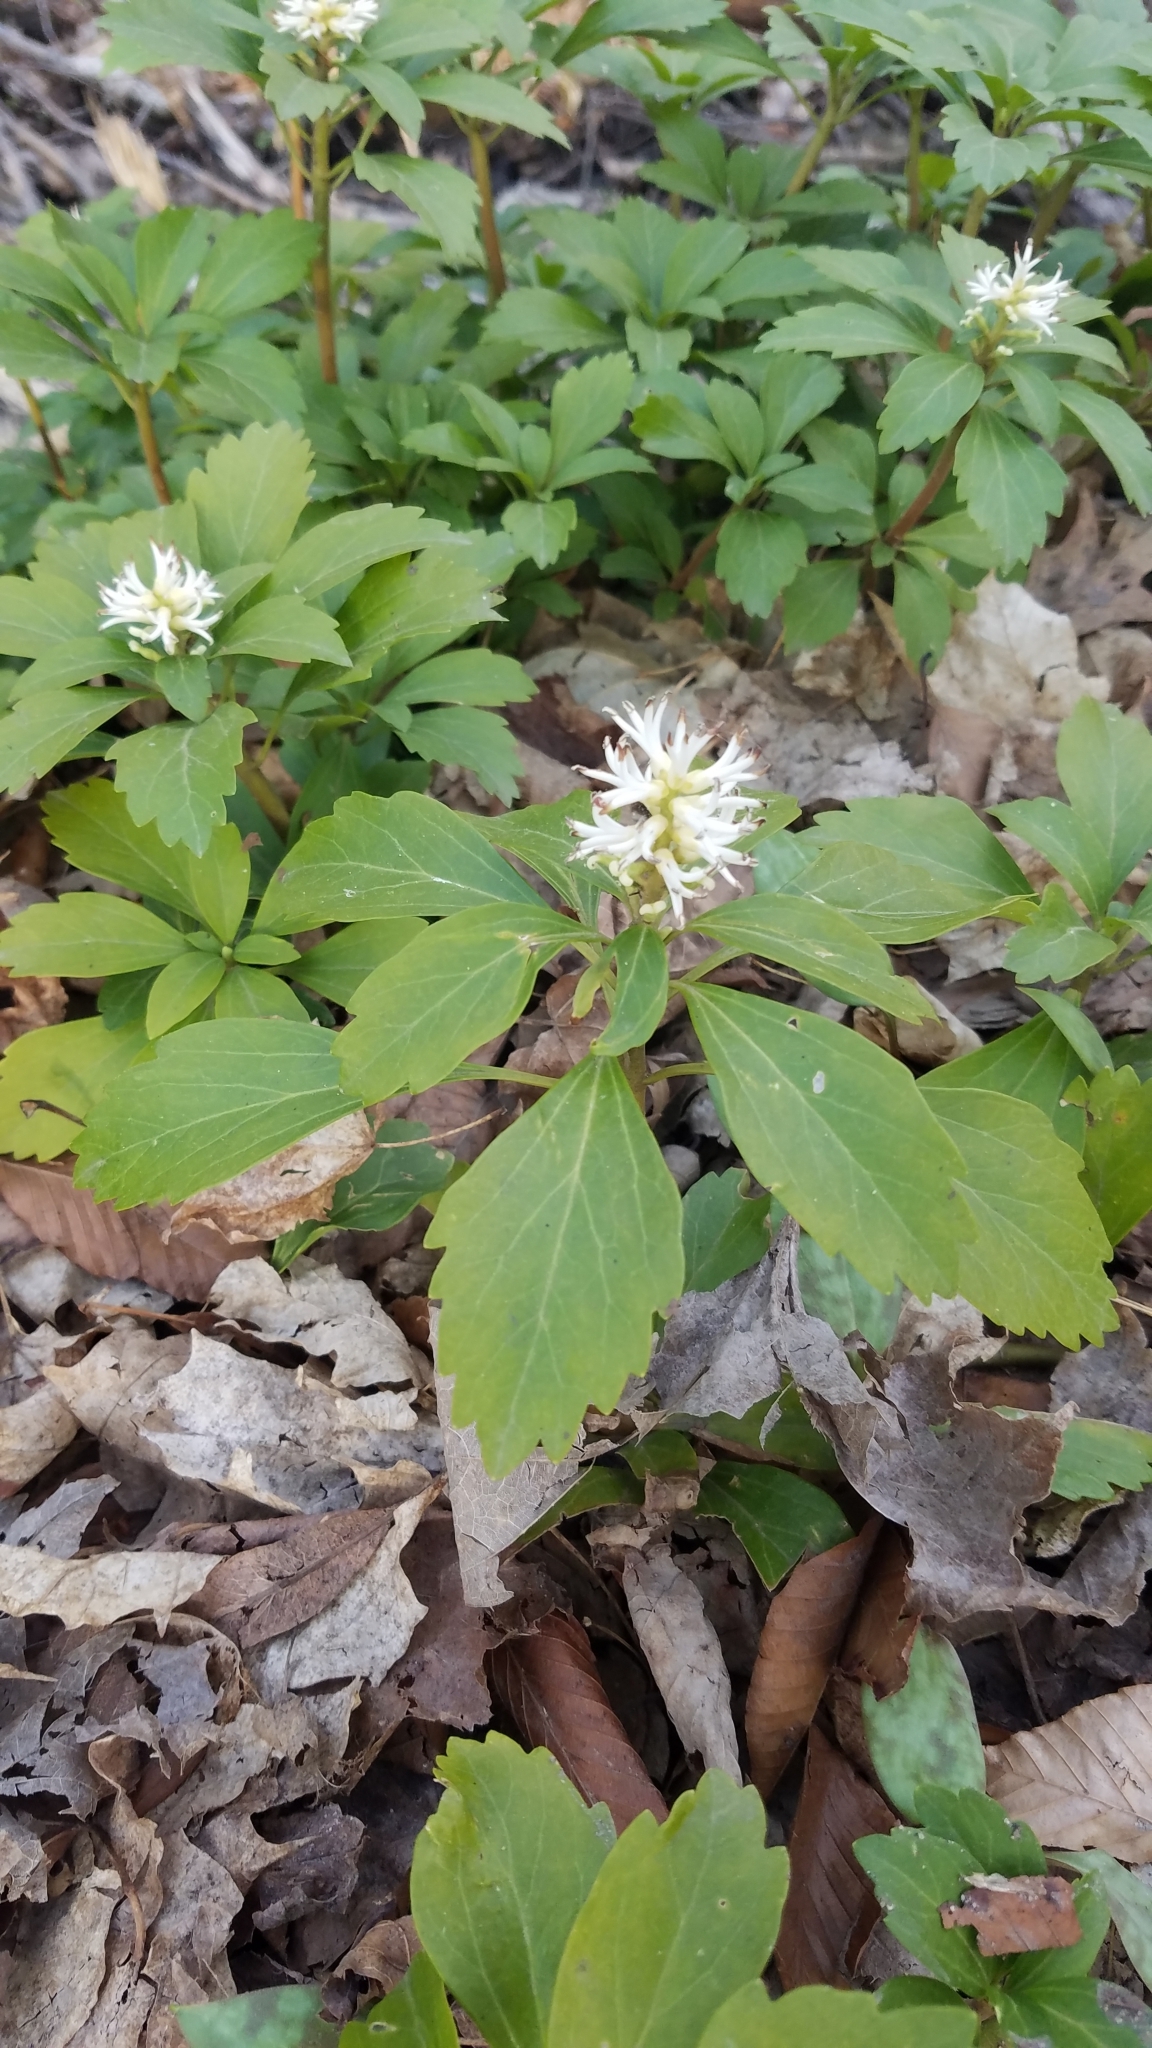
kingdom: Plantae
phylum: Tracheophyta
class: Magnoliopsida
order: Buxales
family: Buxaceae
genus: Pachysandra
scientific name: Pachysandra terminalis
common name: Japanese pachysandra
